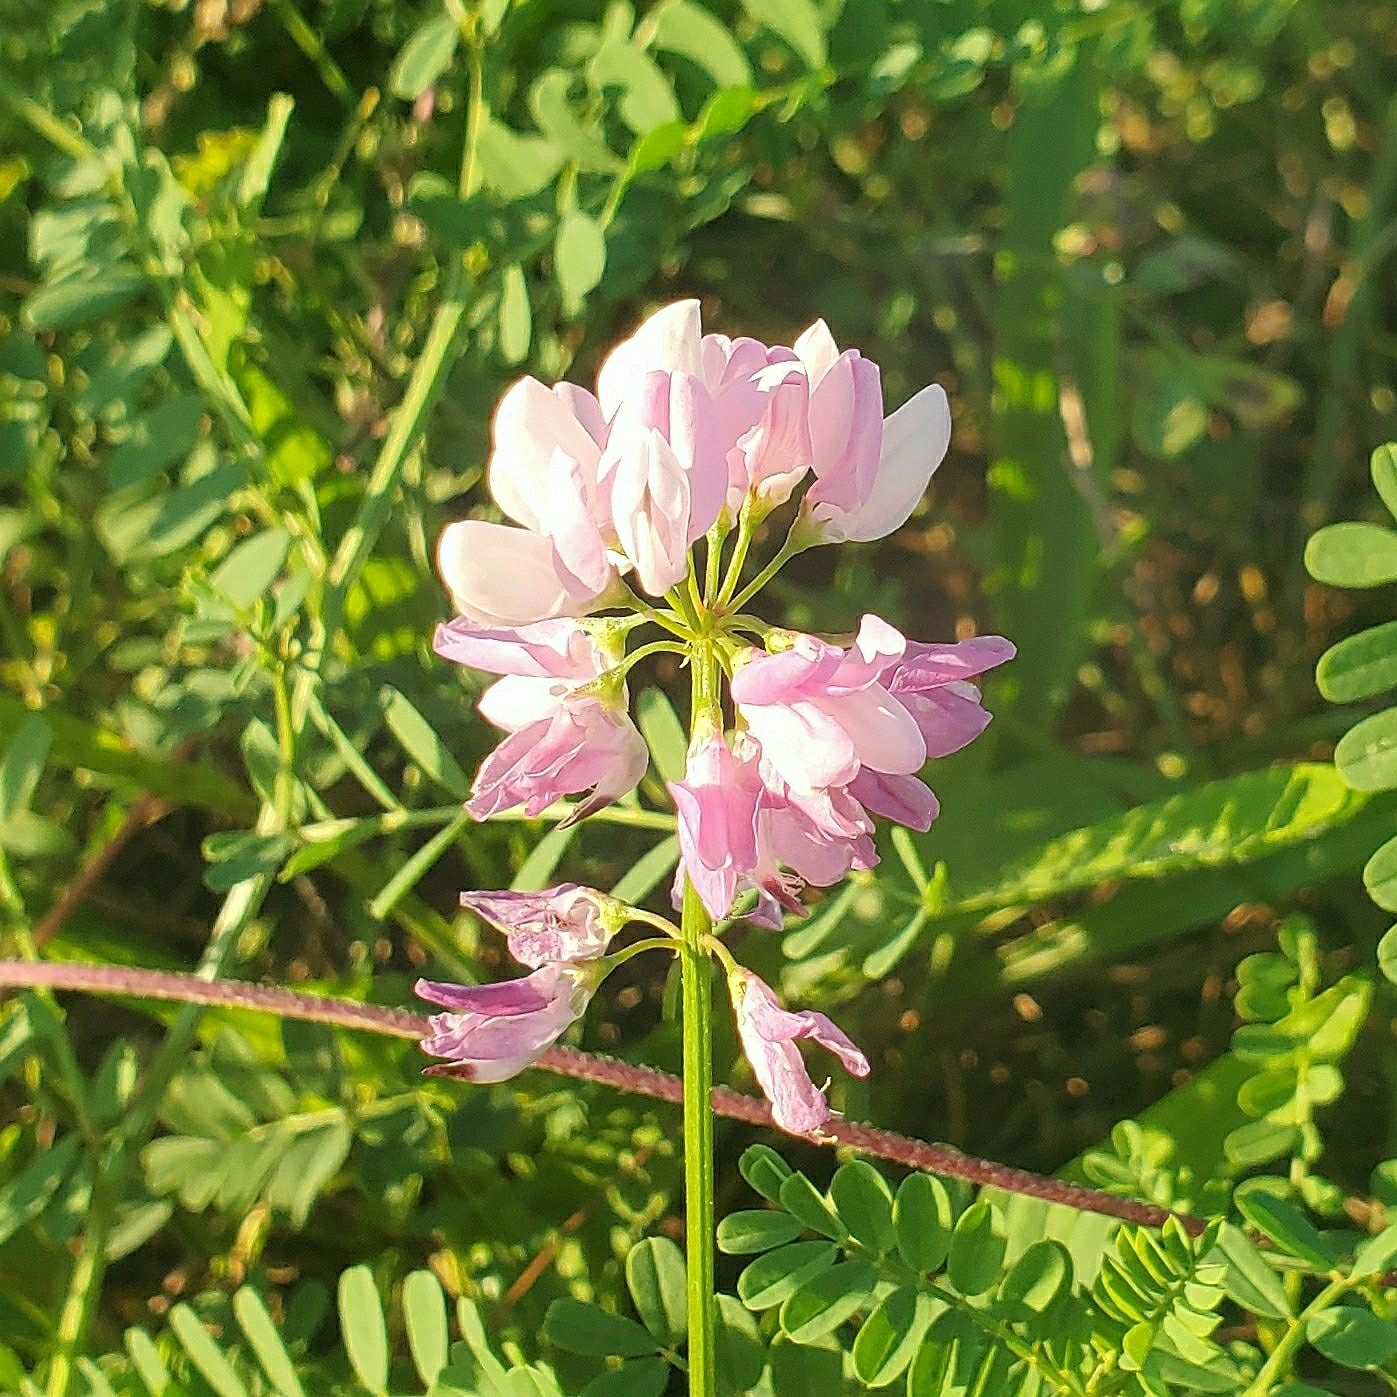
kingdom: Plantae
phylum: Tracheophyta
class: Magnoliopsida
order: Fabales
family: Fabaceae
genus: Coronilla
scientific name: Coronilla varia
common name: Crownvetch
